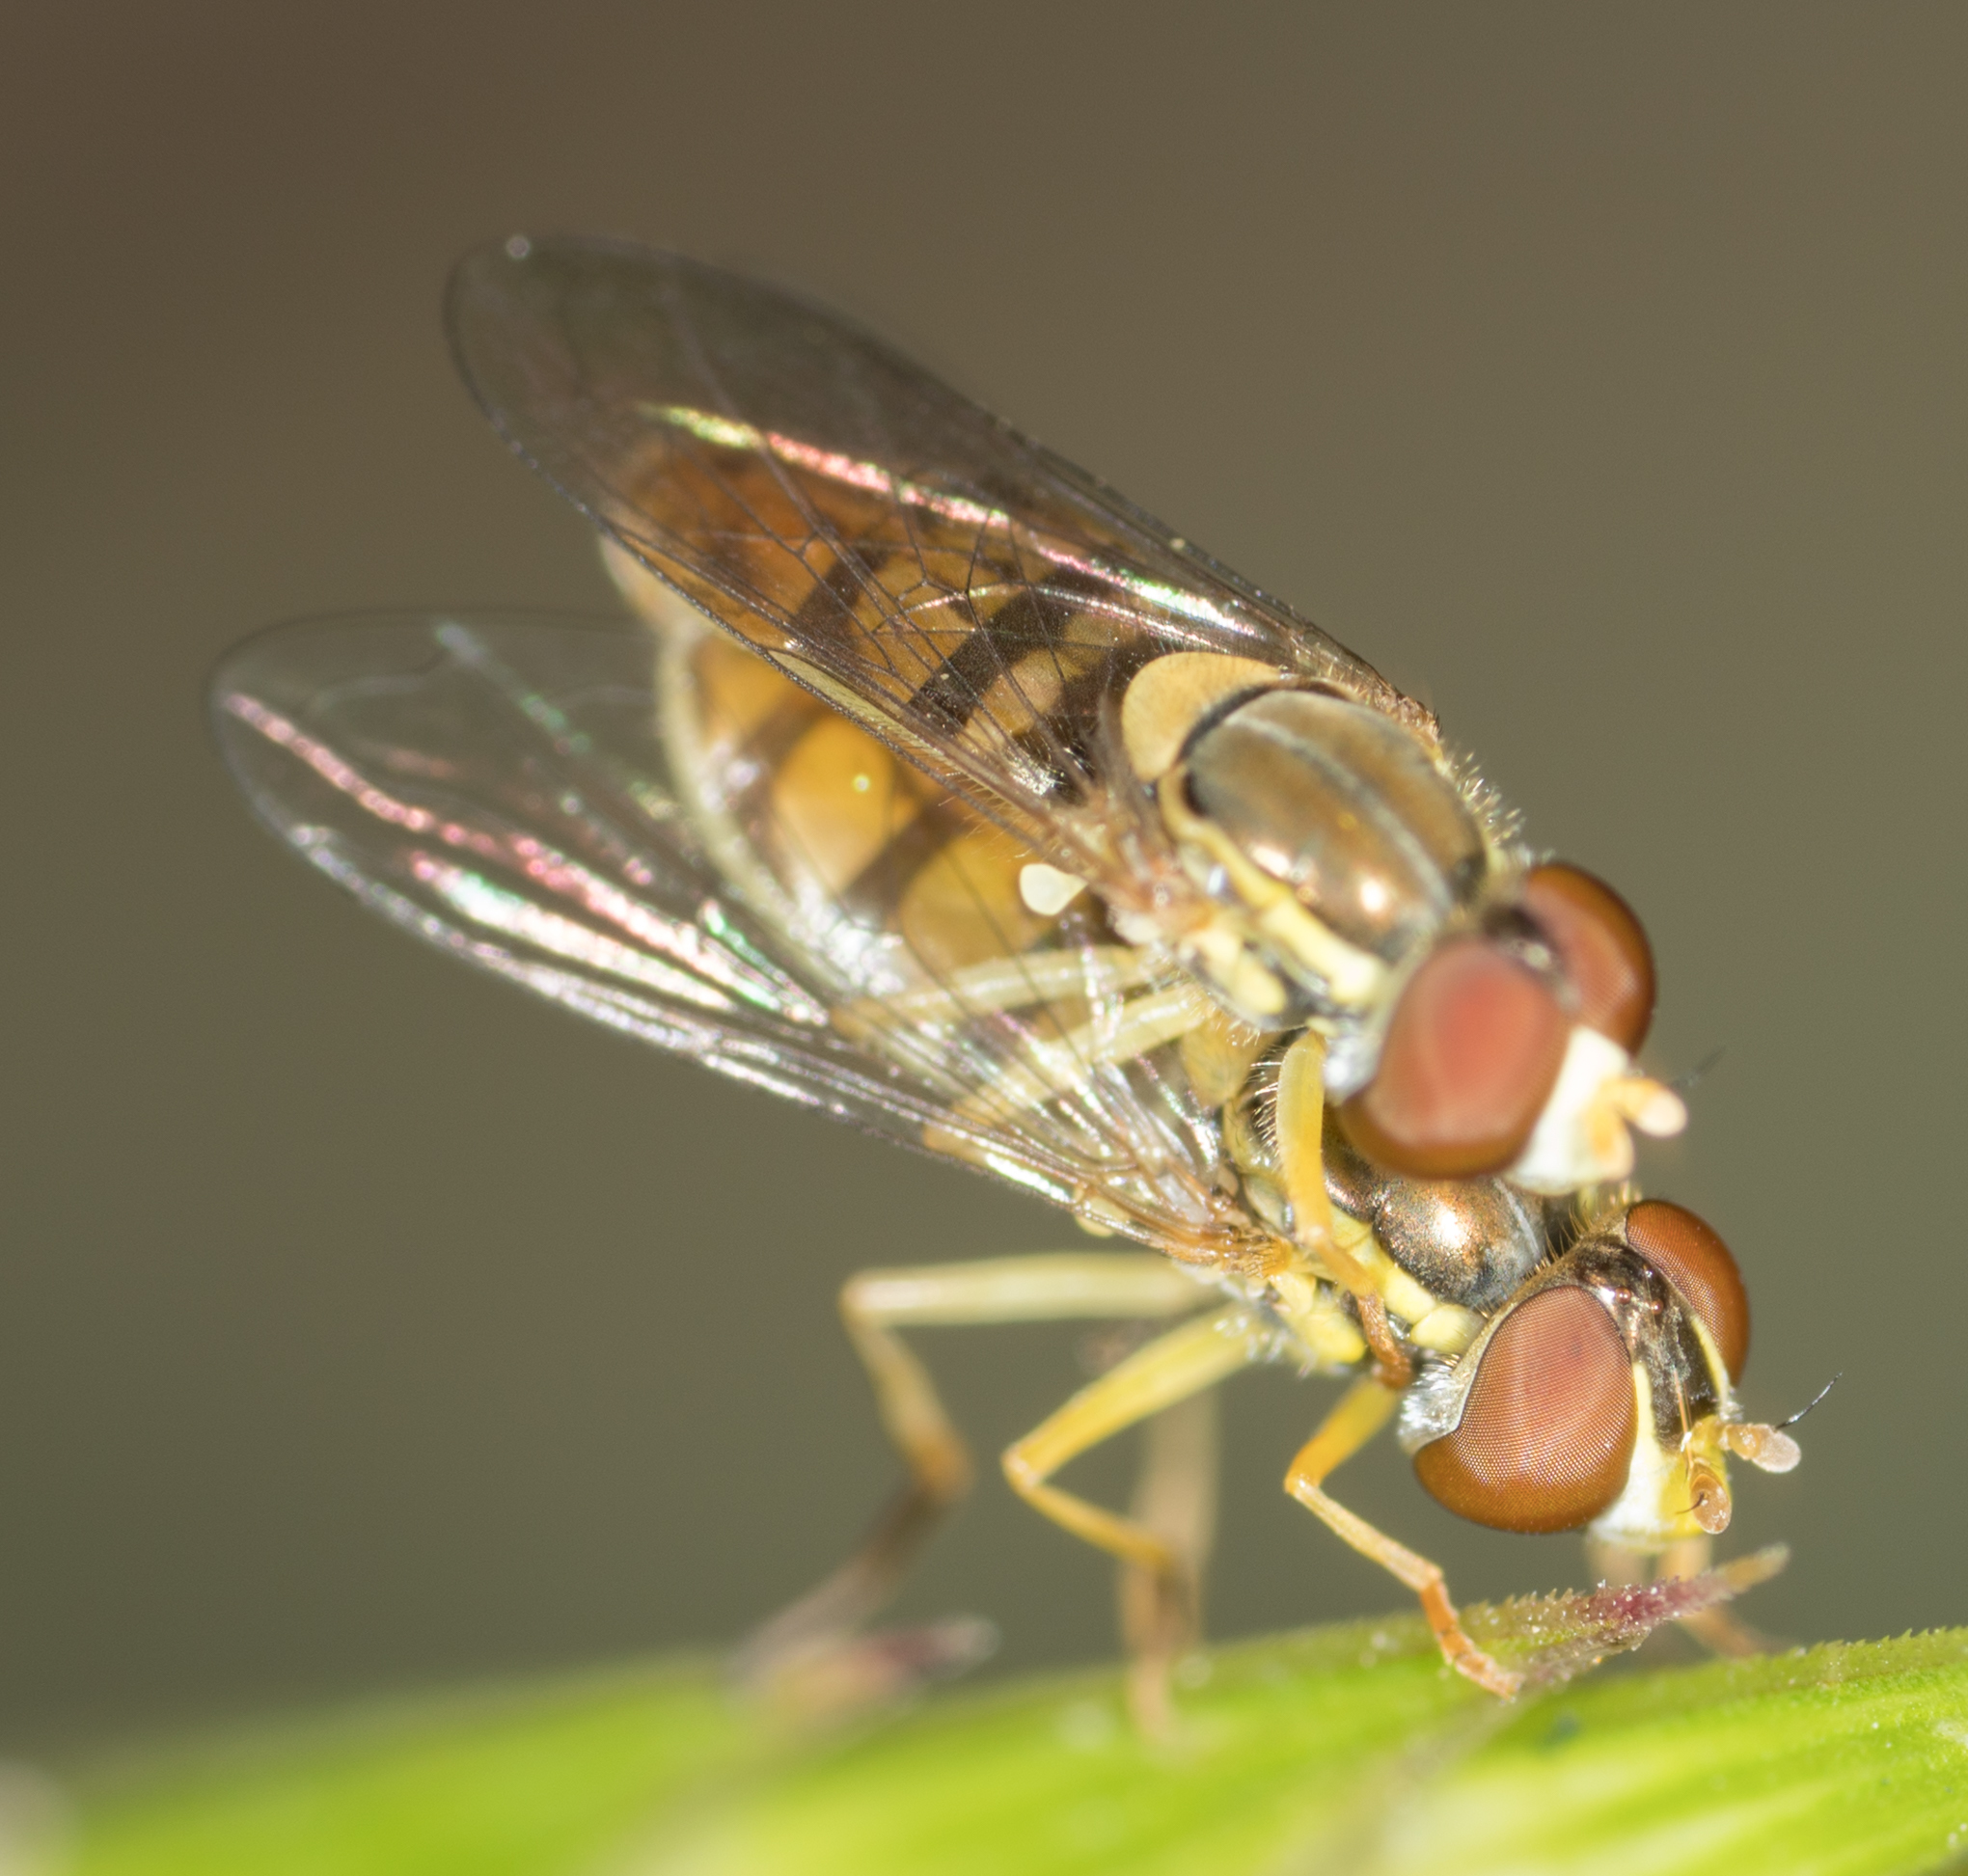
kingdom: Animalia
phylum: Arthropoda
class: Insecta
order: Diptera
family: Syrphidae
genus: Toxomerus
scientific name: Toxomerus marginatus
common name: Syrphid fly
